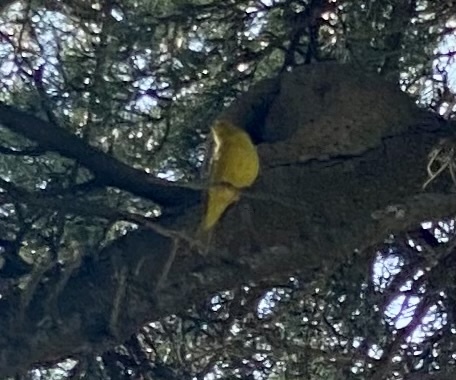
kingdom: Animalia
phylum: Chordata
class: Aves
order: Passeriformes
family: Thraupidae
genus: Sicalis
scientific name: Sicalis flaveola
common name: Saffron finch
